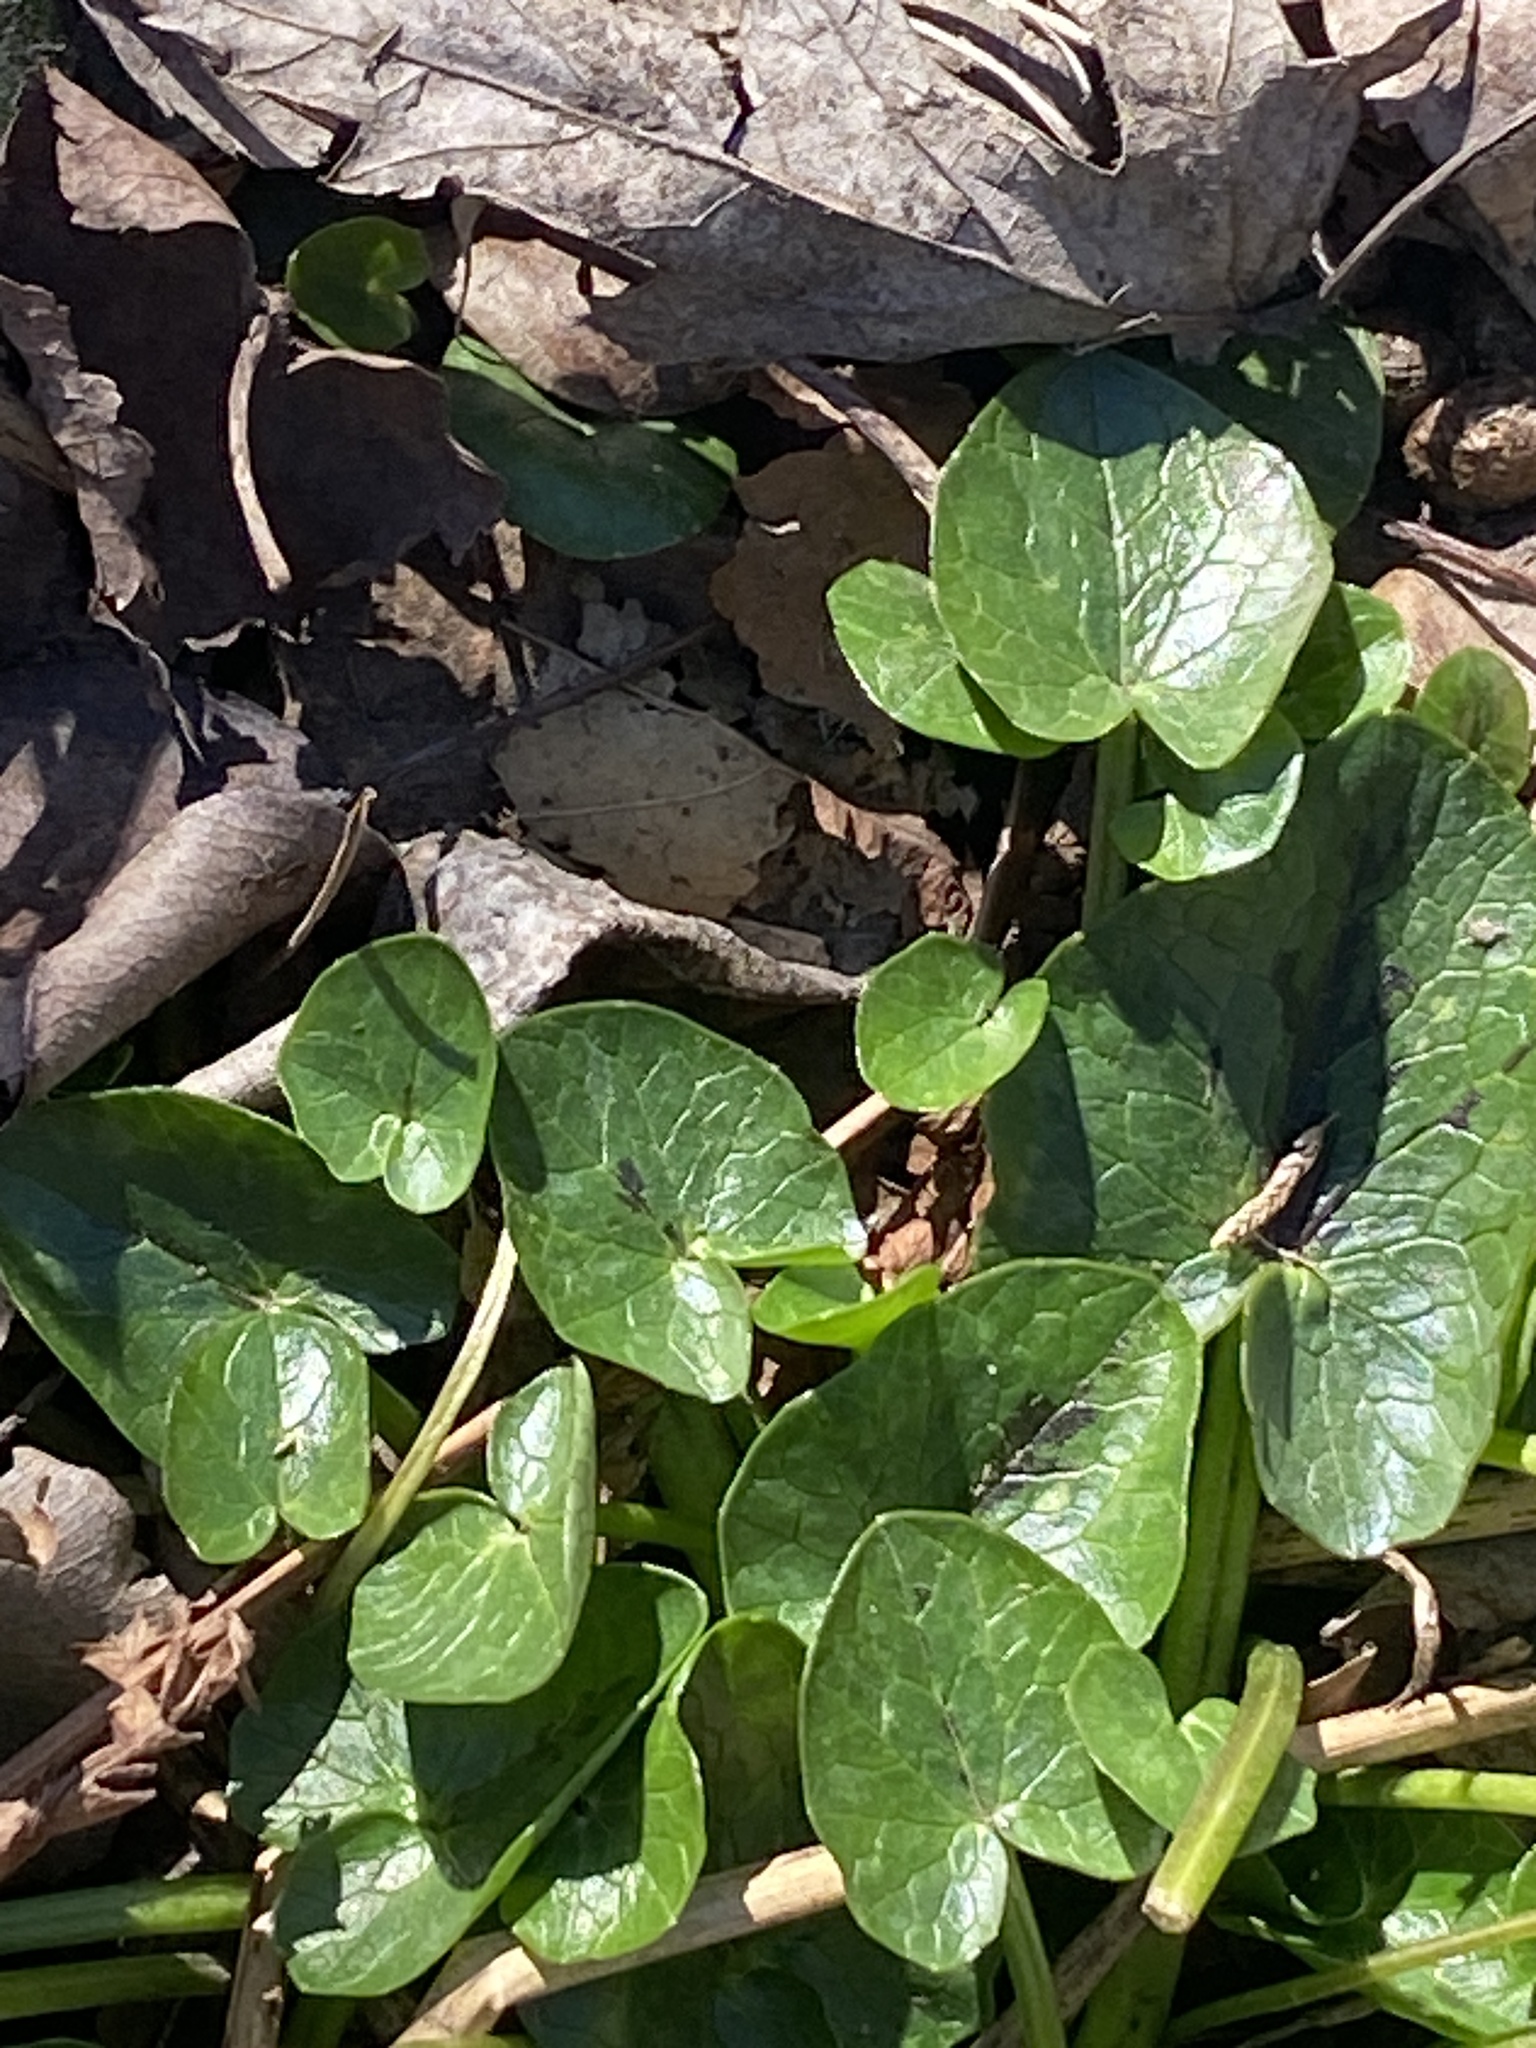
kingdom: Plantae
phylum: Tracheophyta
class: Magnoliopsida
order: Ranunculales
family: Ranunculaceae
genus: Ficaria
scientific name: Ficaria verna
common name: Lesser celandine
